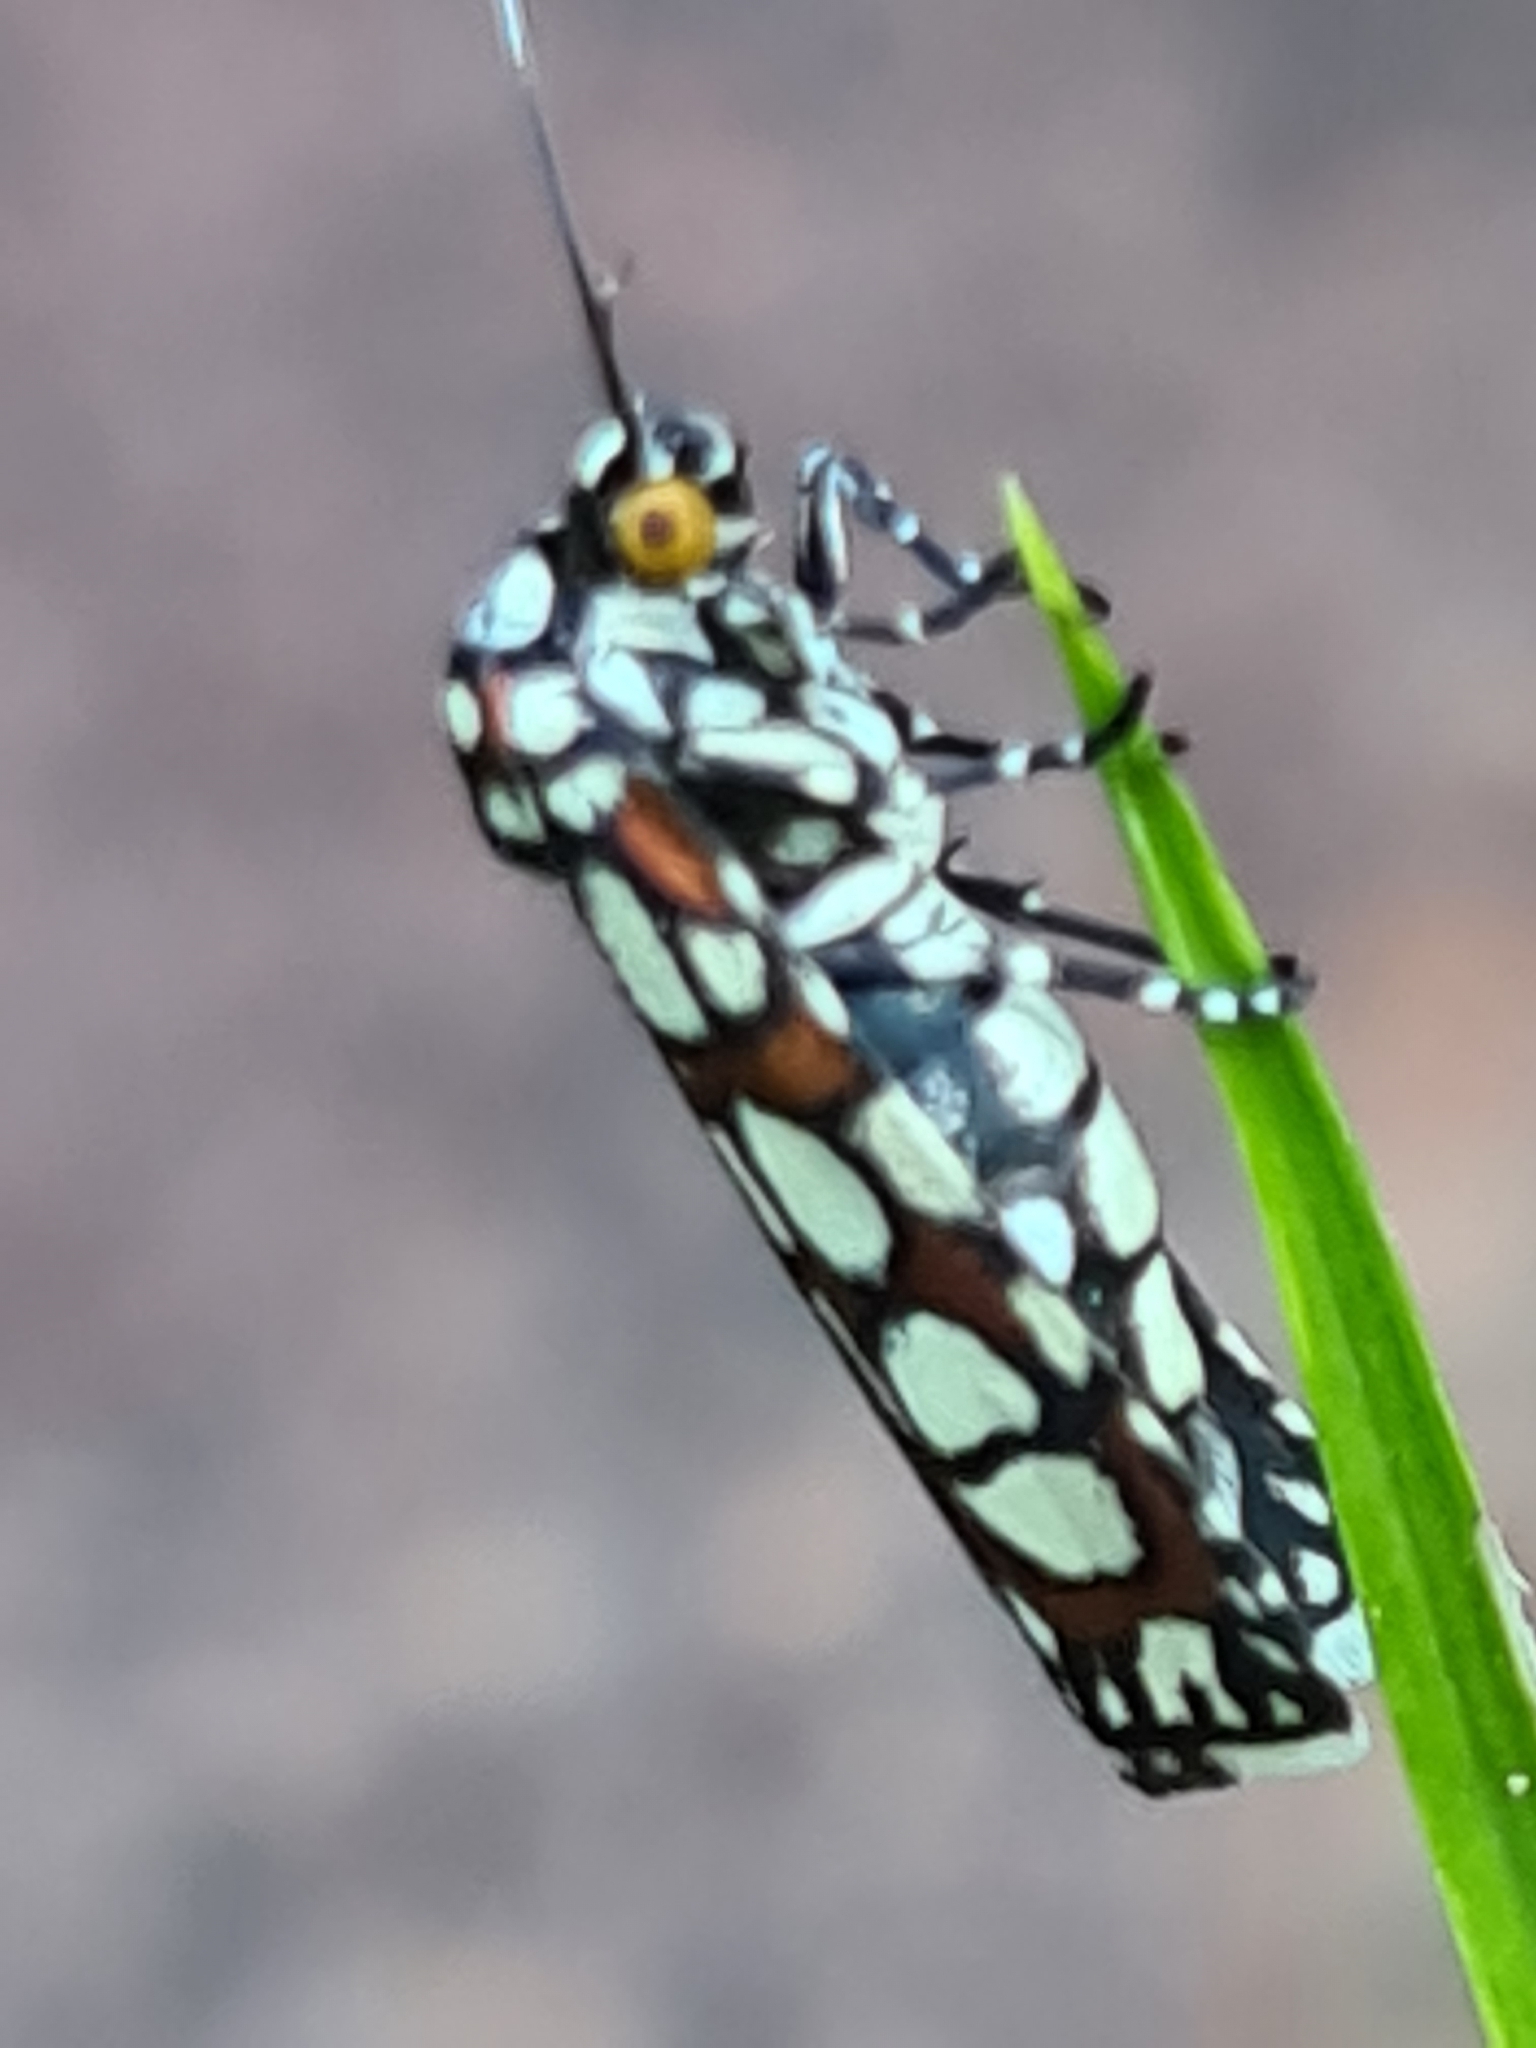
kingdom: Animalia
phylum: Arthropoda
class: Insecta
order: Lepidoptera
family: Noctuidae
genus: Cydosia
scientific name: Cydosia nobilitella
